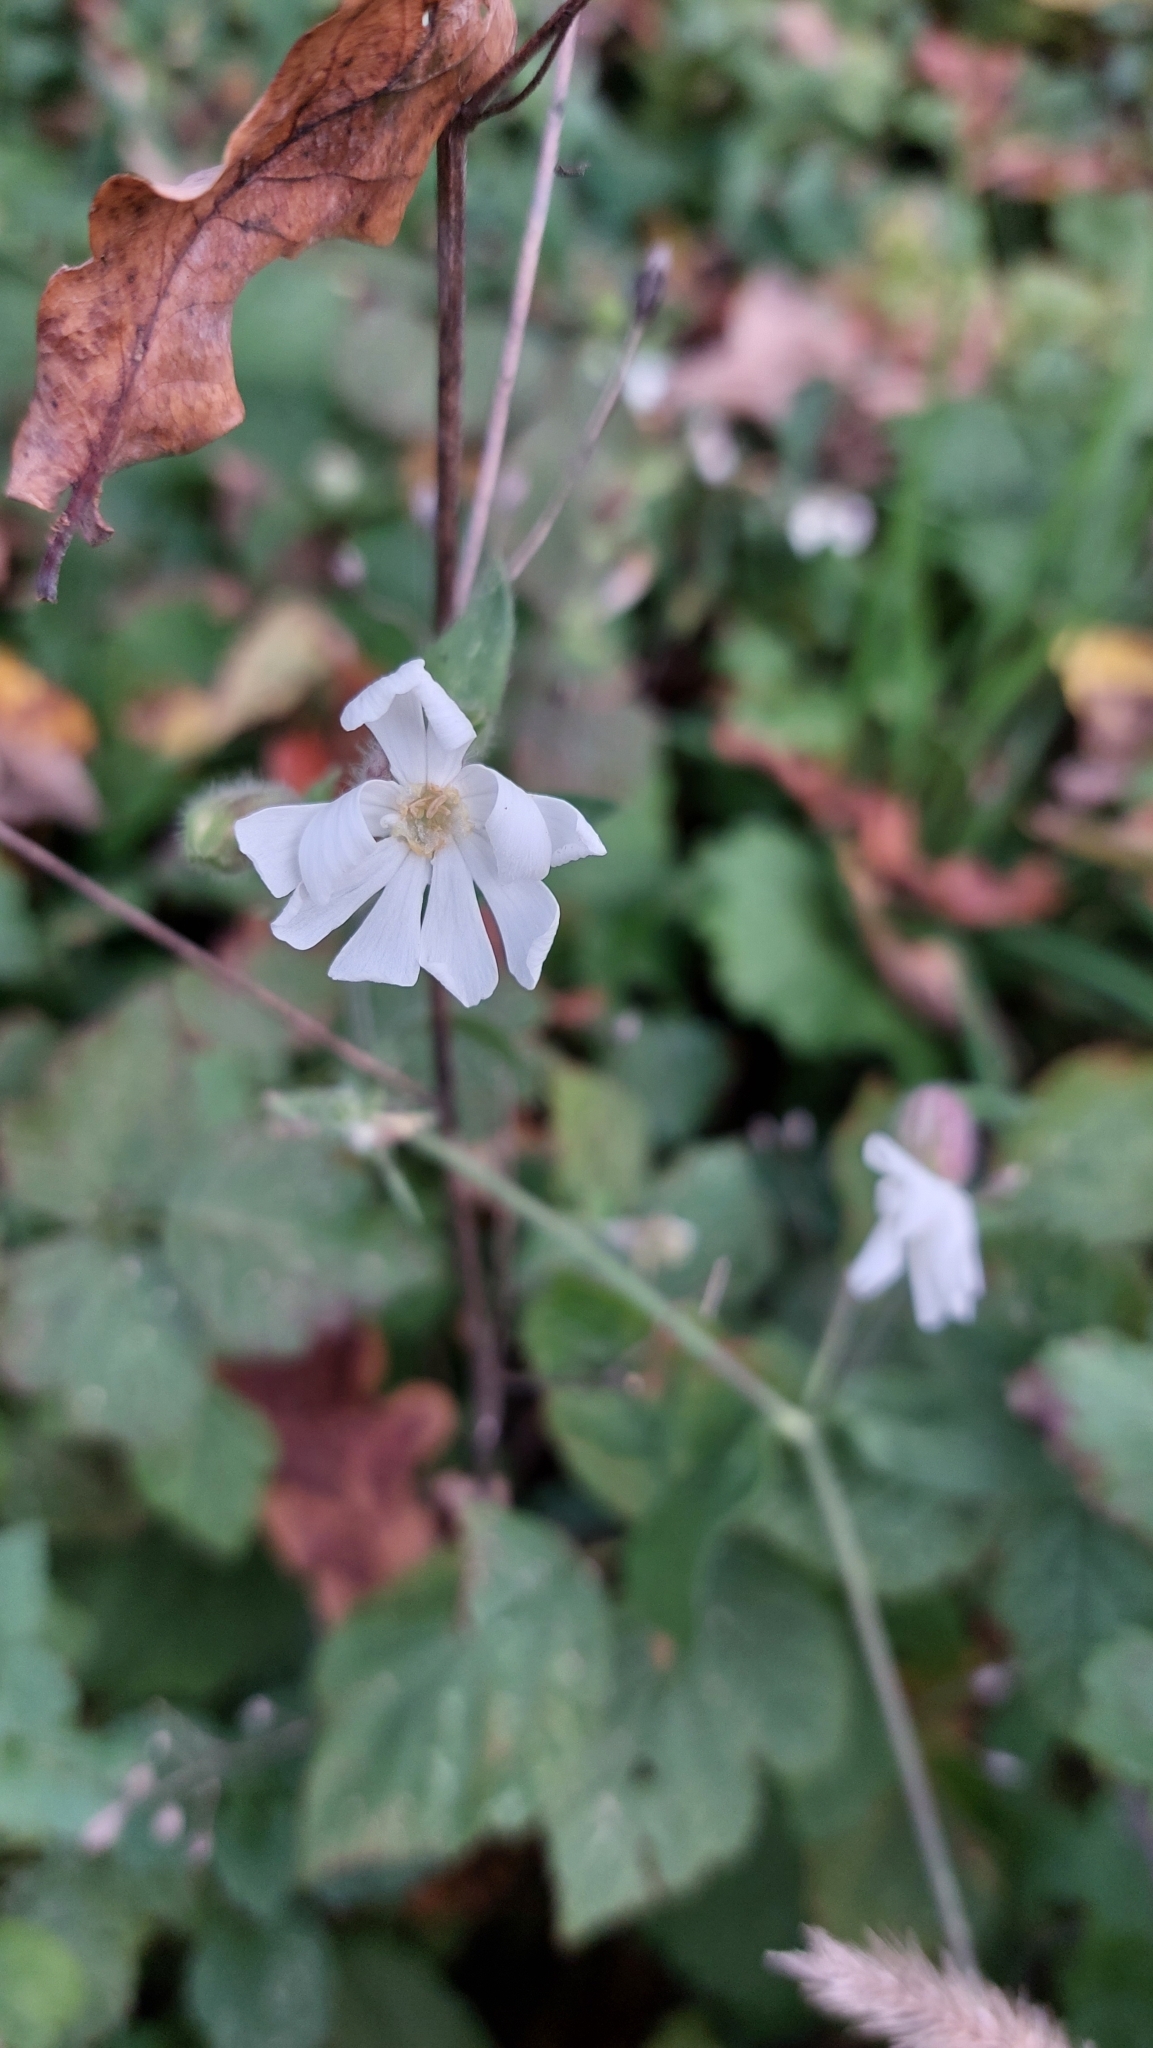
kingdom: Plantae
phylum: Tracheophyta
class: Magnoliopsida
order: Caryophyllales
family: Caryophyllaceae
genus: Silene
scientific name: Silene latifolia
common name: White campion
